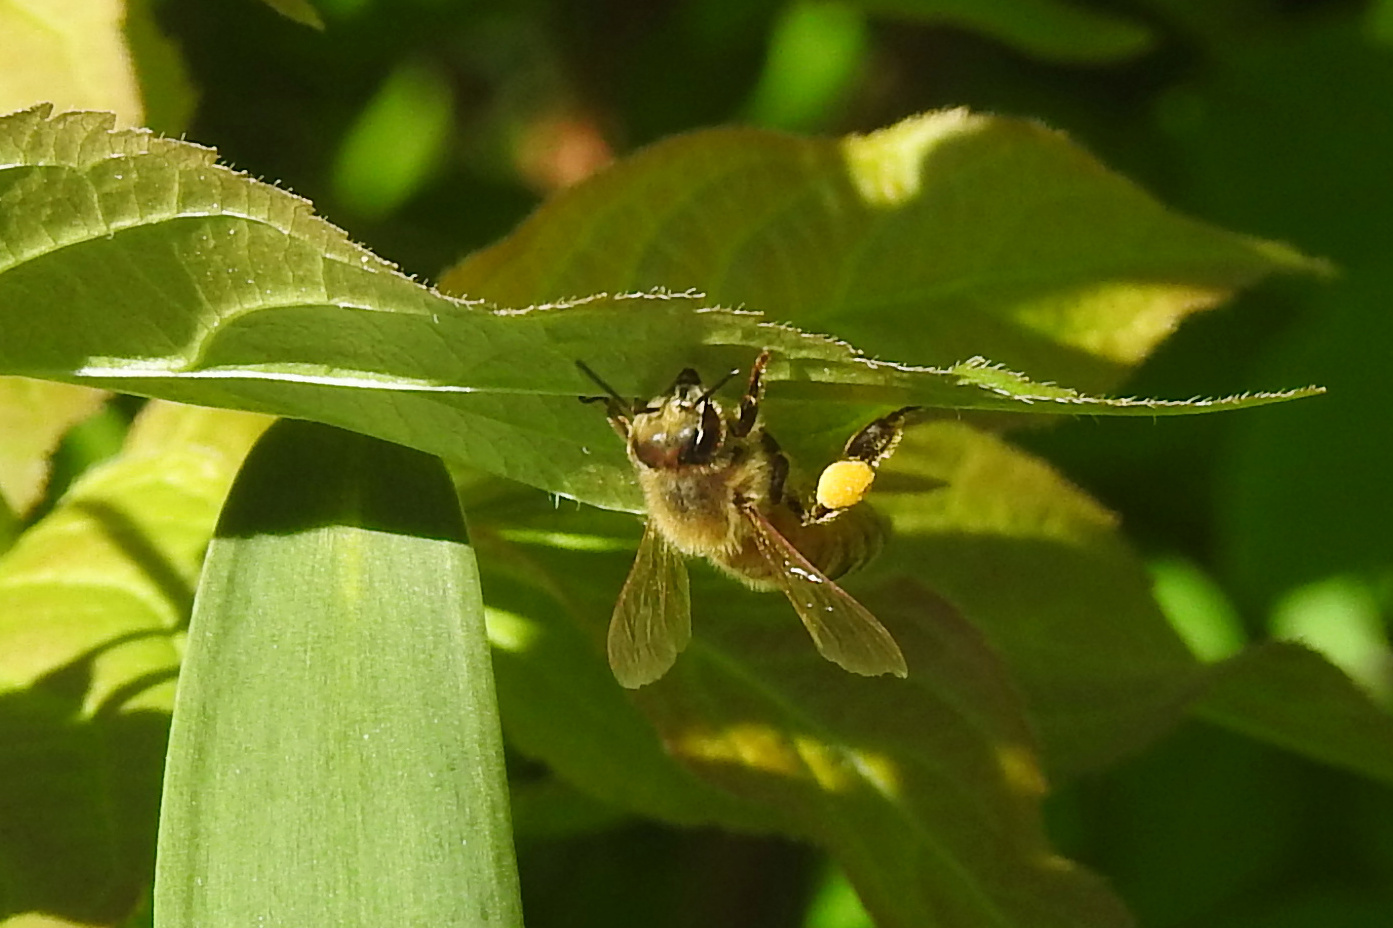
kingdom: Animalia
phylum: Arthropoda
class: Insecta
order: Hymenoptera
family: Apidae
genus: Apis
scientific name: Apis mellifera
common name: Honey bee
